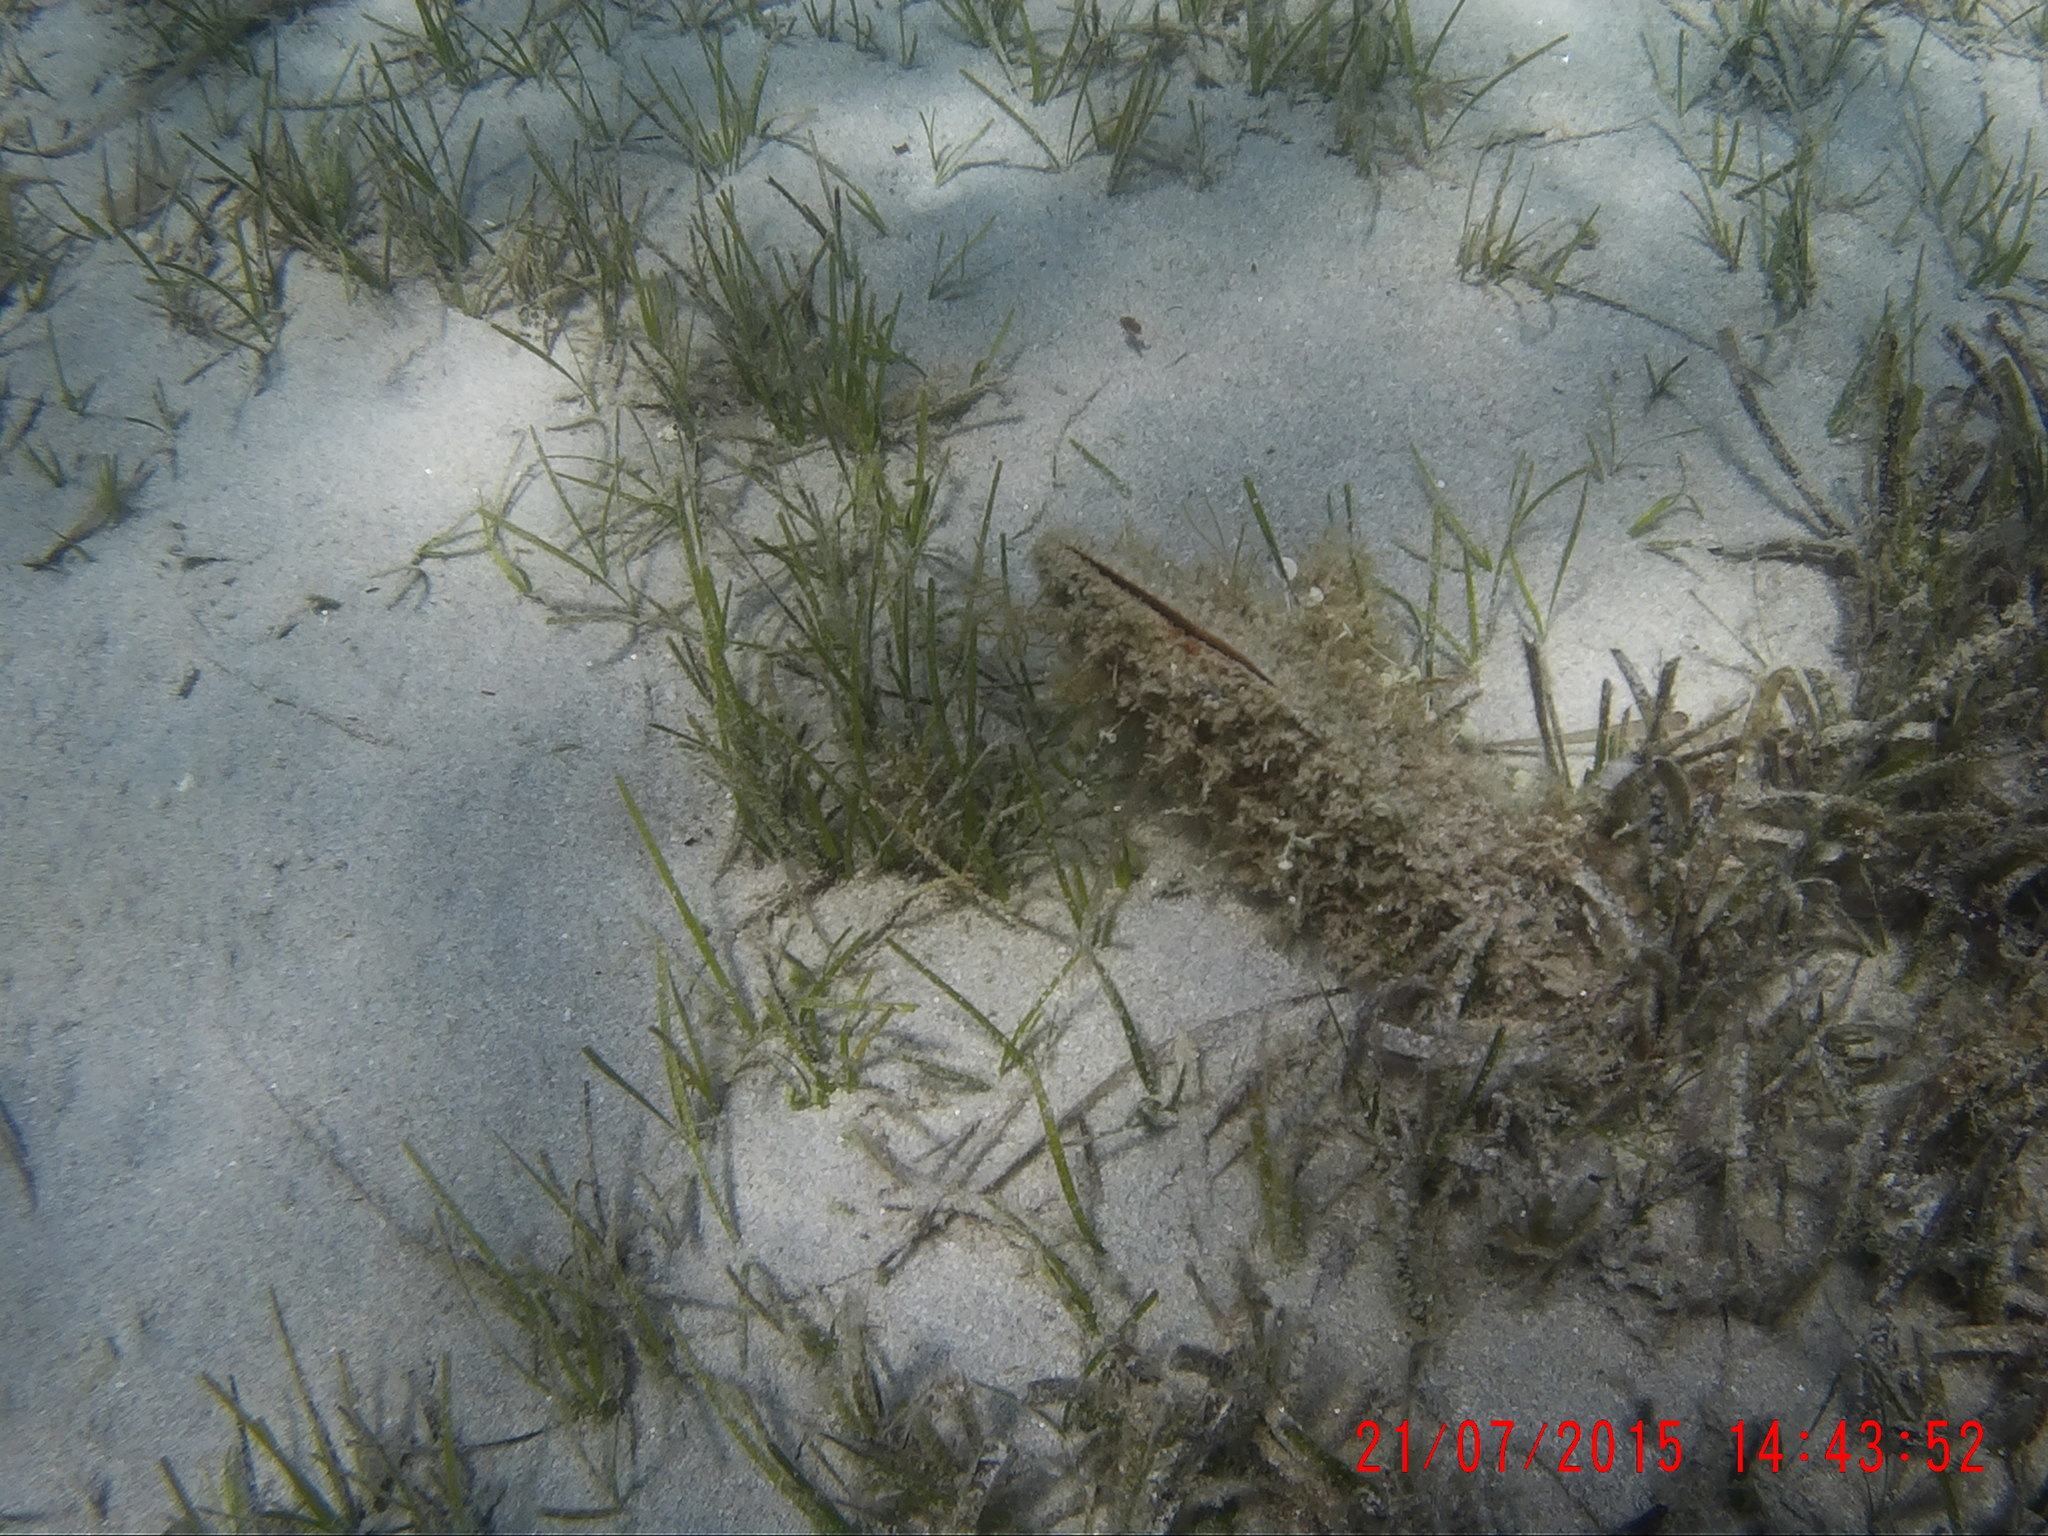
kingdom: Animalia
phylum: Mollusca
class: Bivalvia
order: Ostreida
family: Pinnidae
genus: Pinna
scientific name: Pinna nobilis
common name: Fan mussel
